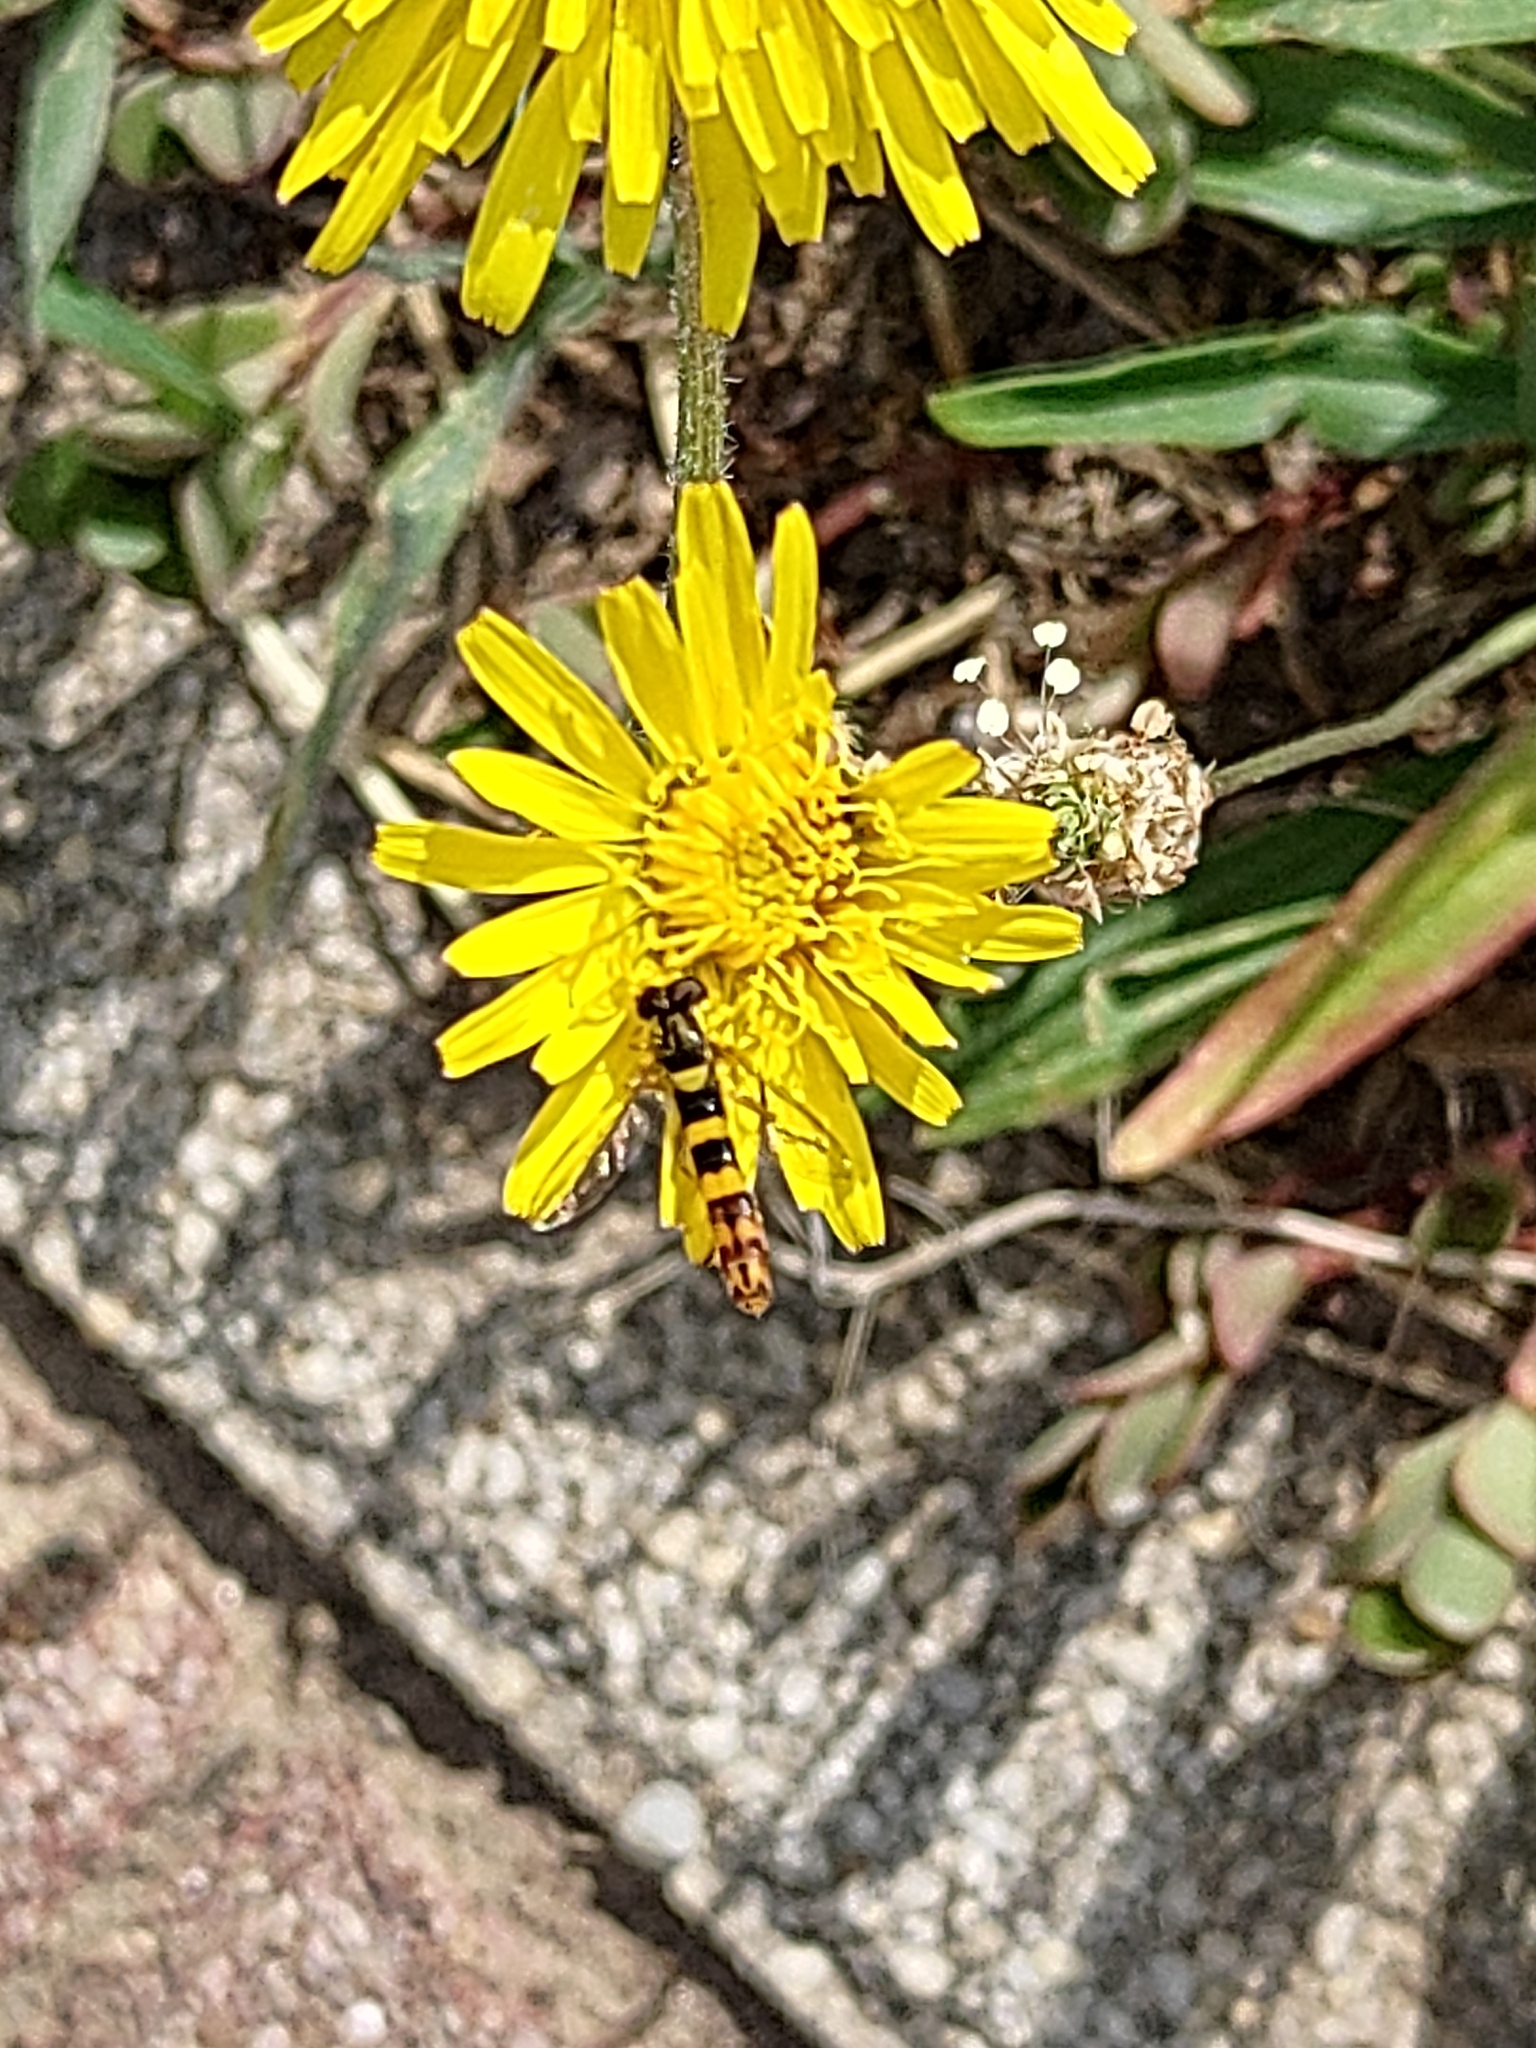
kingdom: Animalia
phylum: Arthropoda
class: Insecta
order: Diptera
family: Syrphidae
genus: Sphaerophoria
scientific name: Sphaerophoria scripta
